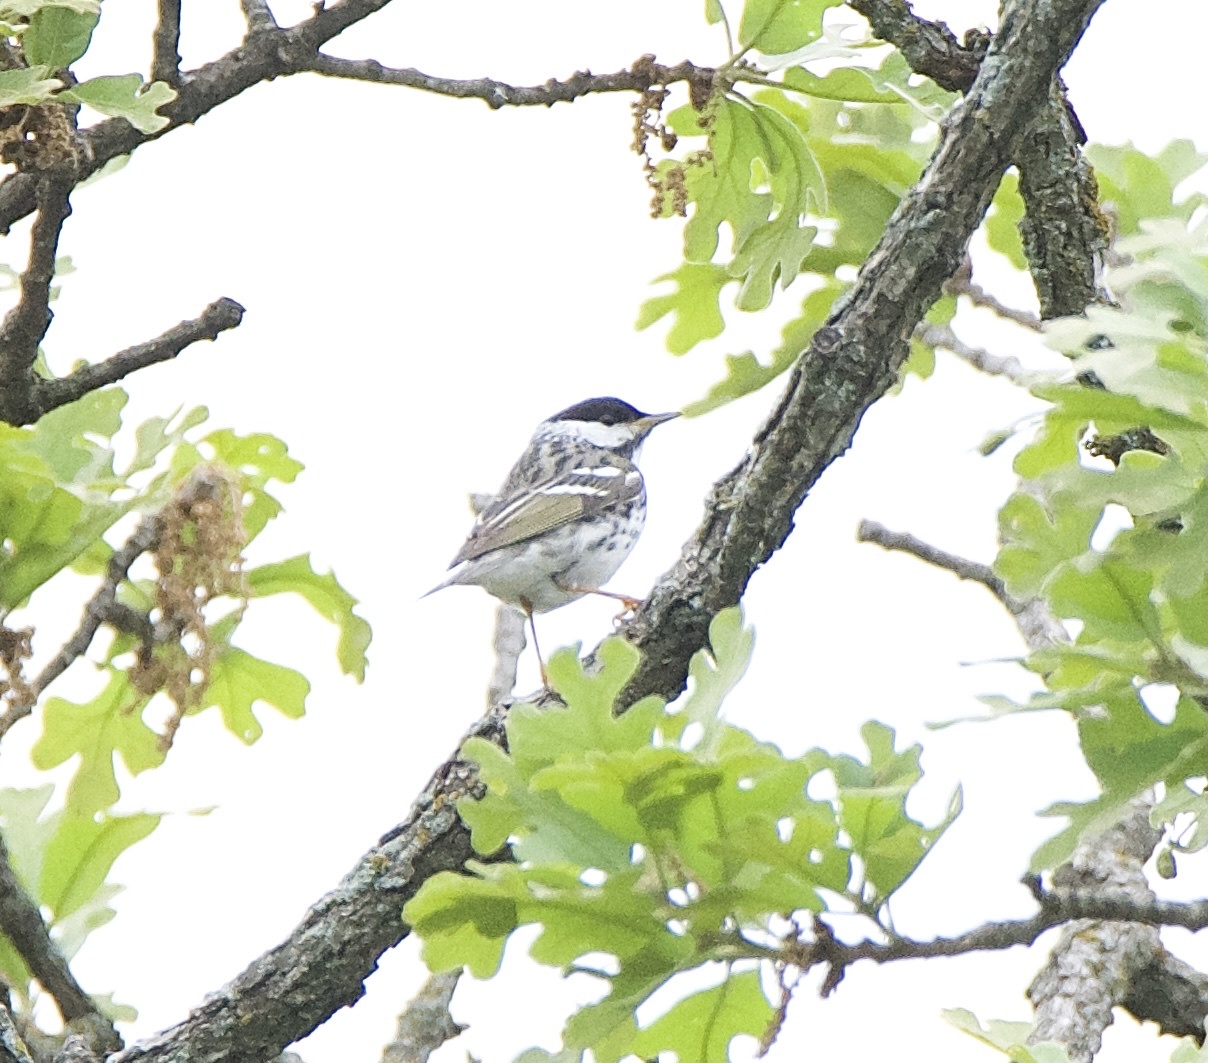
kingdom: Animalia
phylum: Chordata
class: Aves
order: Passeriformes
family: Parulidae
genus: Setophaga
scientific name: Setophaga striata
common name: Blackpoll warbler
